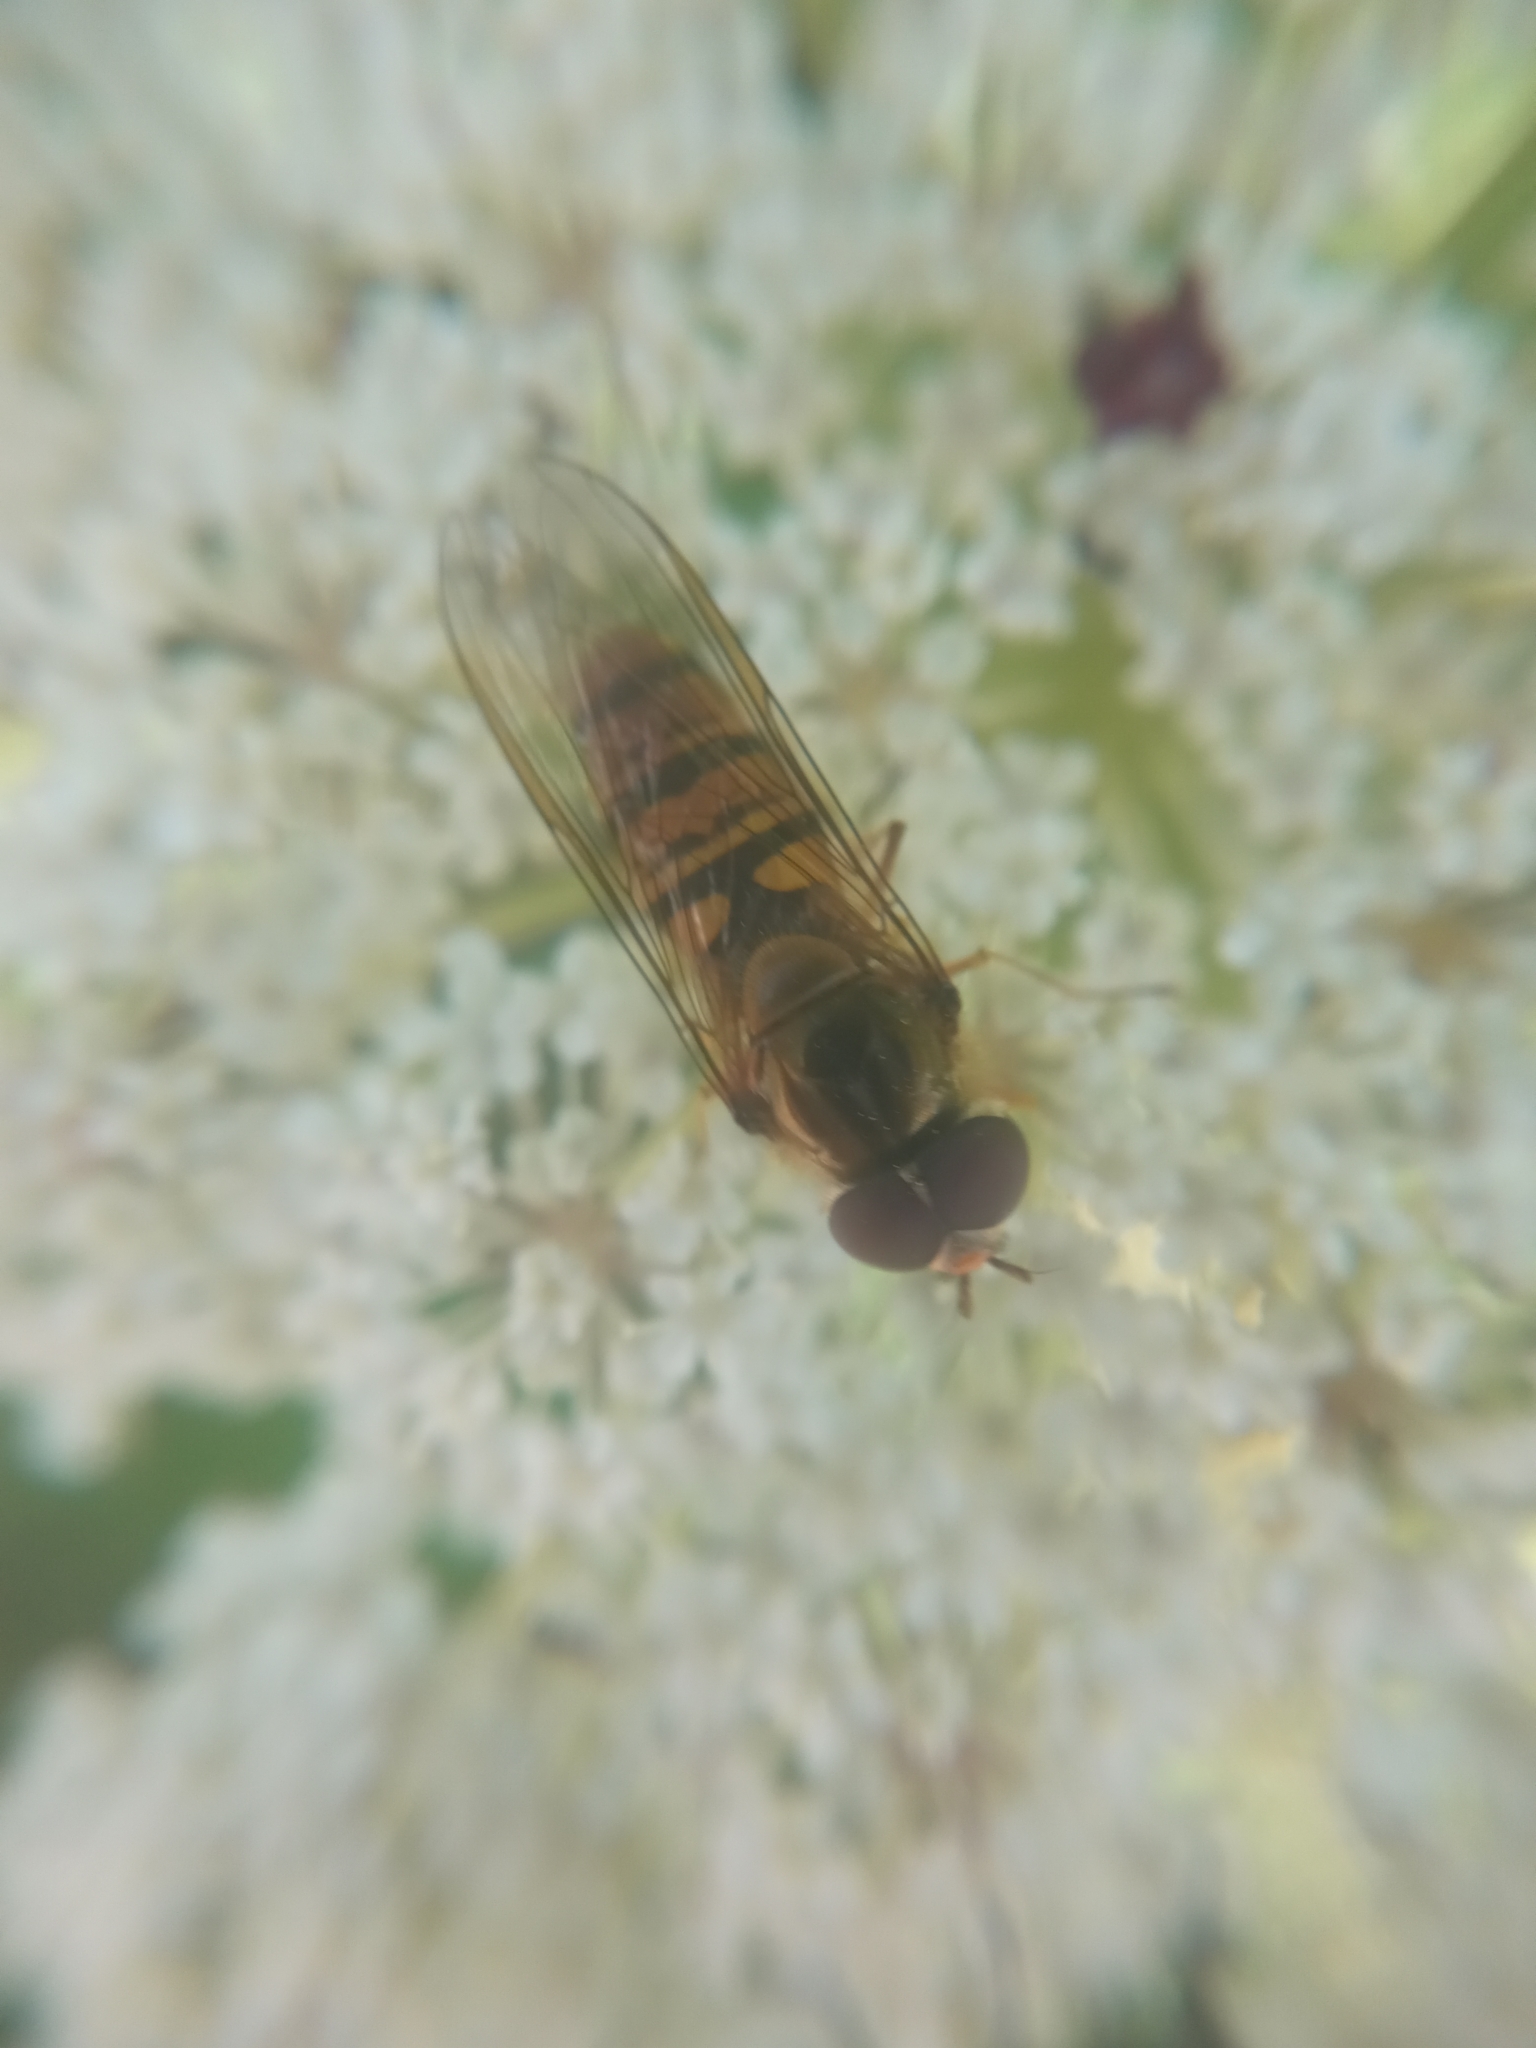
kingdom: Animalia
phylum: Arthropoda
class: Insecta
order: Diptera
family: Syrphidae
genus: Episyrphus
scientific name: Episyrphus balteatus
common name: Marmalade hoverfly
